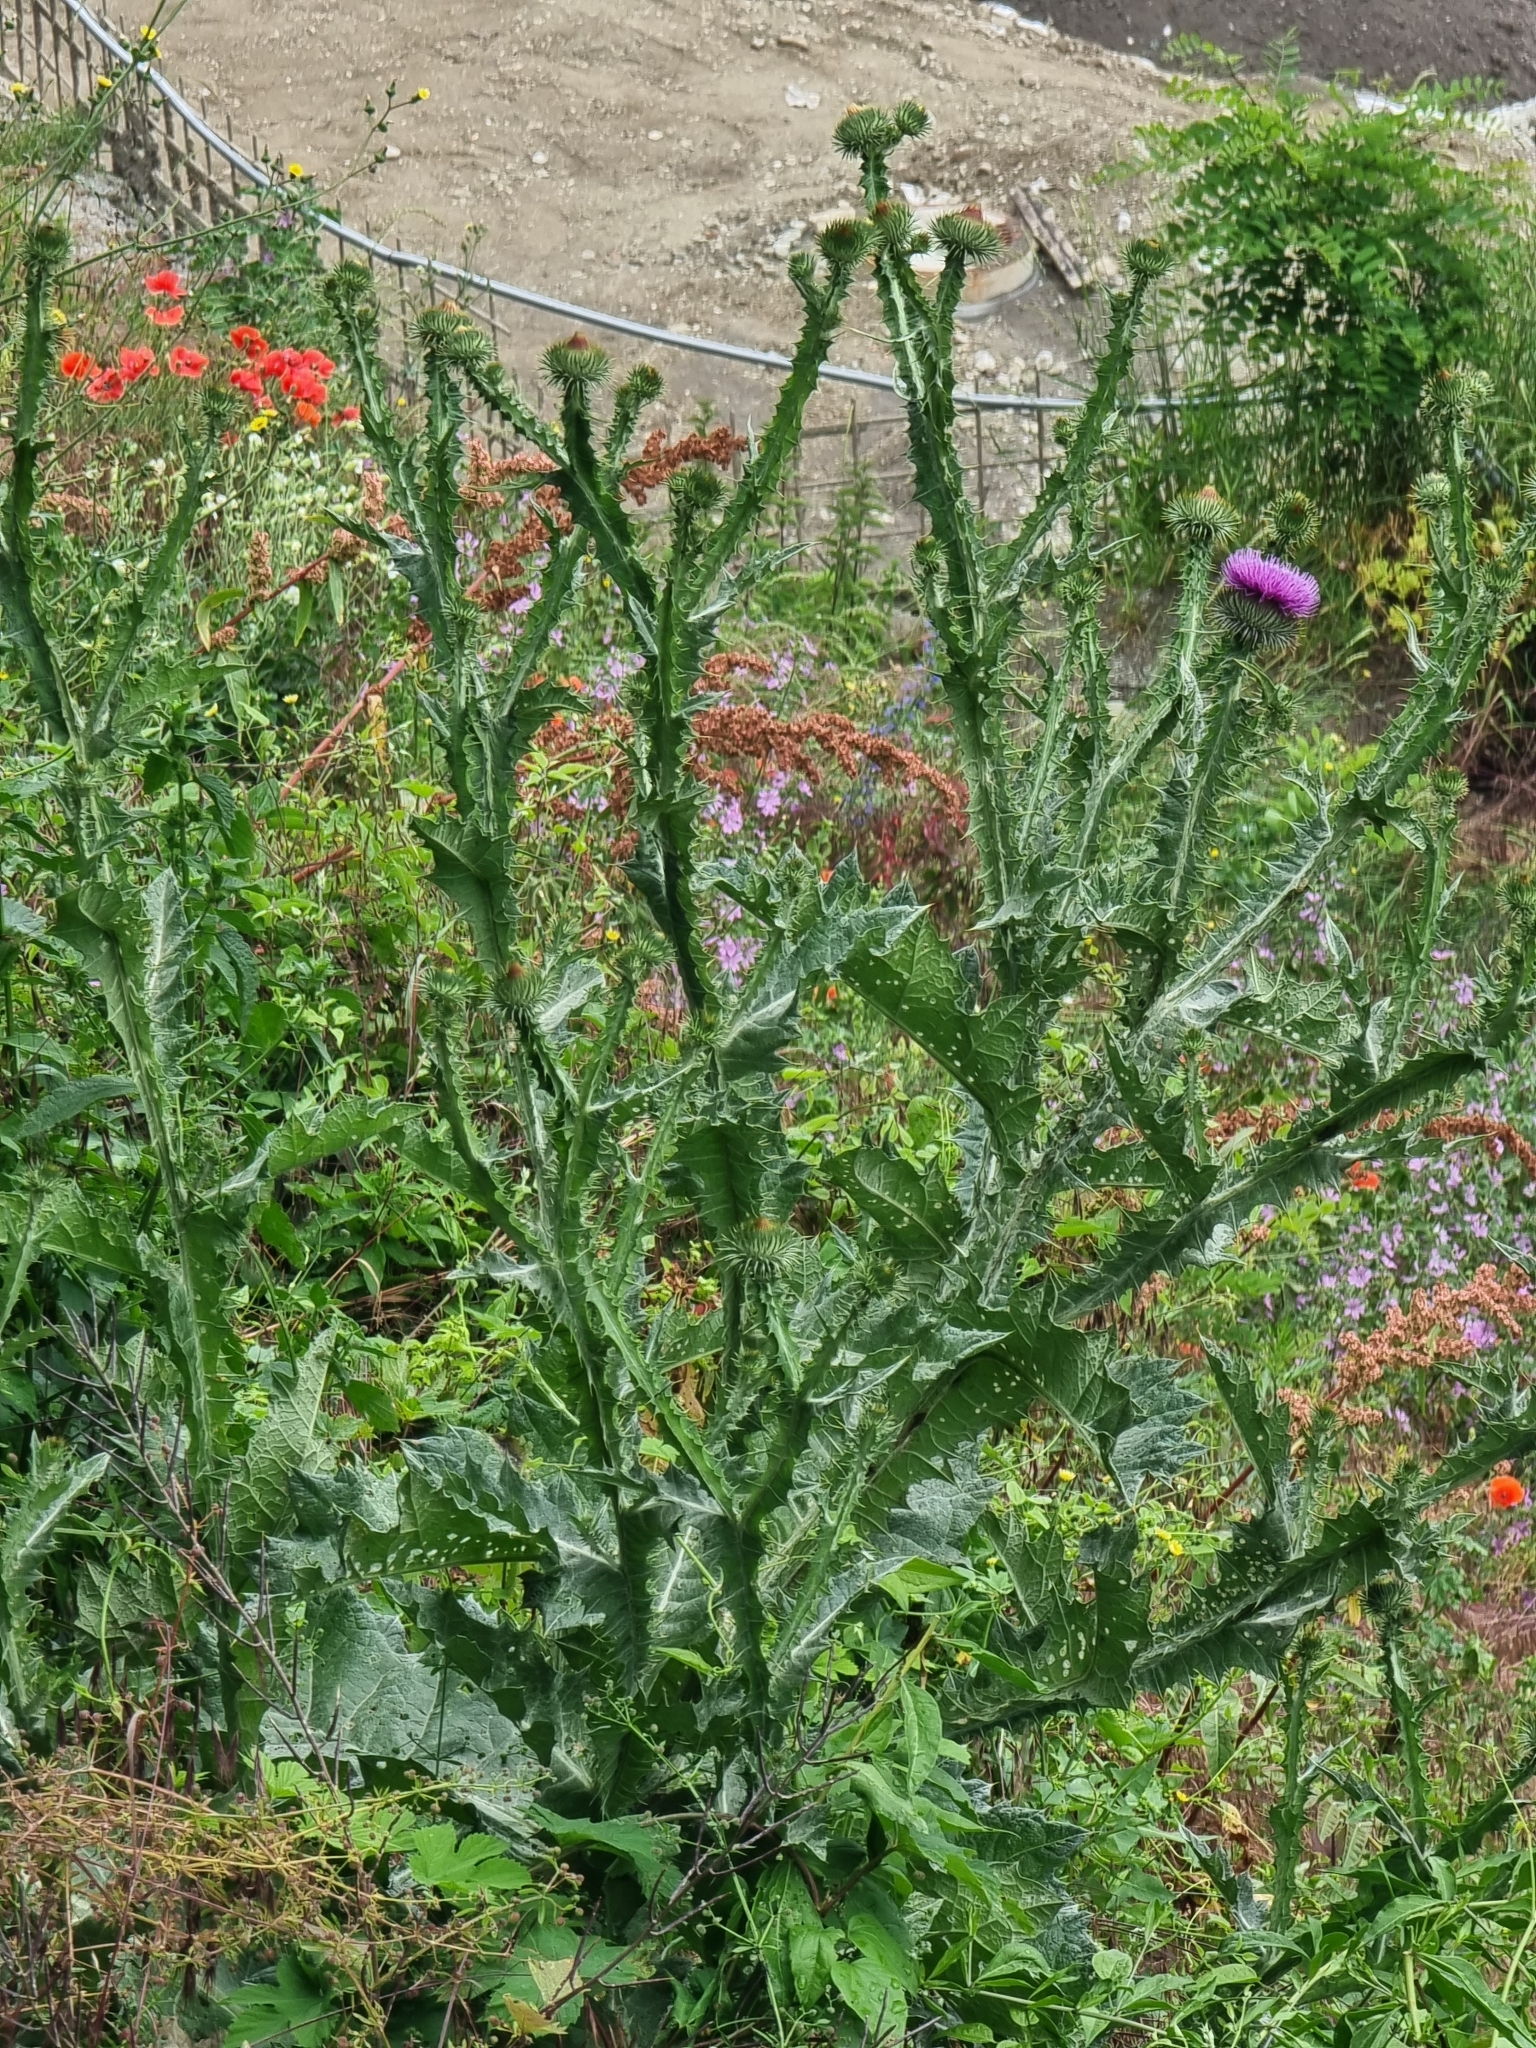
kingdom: Plantae
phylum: Tracheophyta
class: Magnoliopsida
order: Asterales
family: Asteraceae
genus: Onopordum
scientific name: Onopordum acanthium
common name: Scotch thistle
